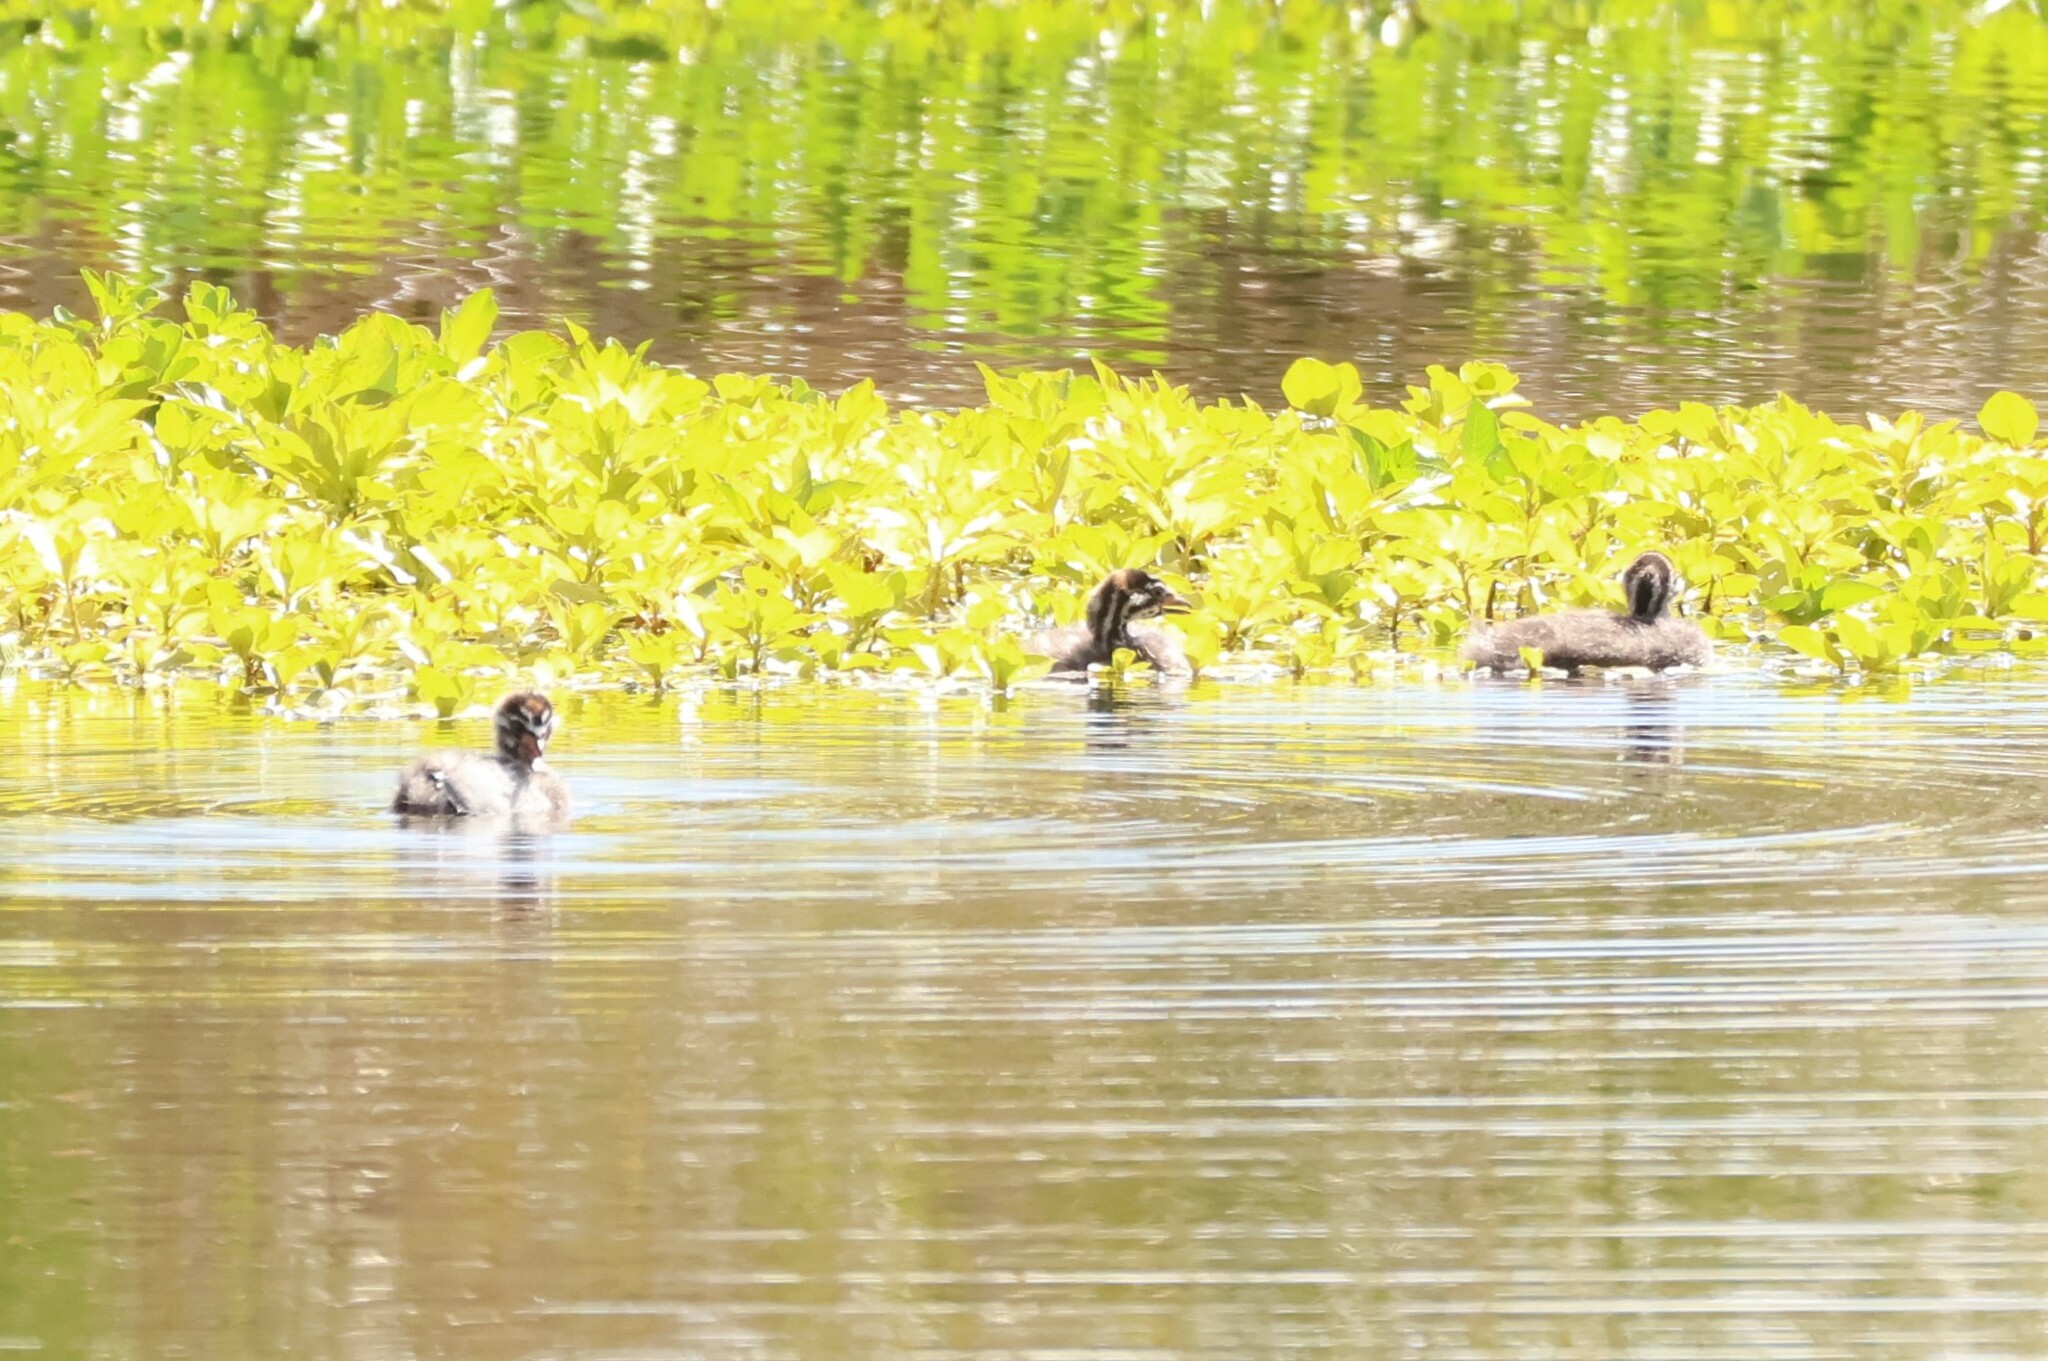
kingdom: Animalia
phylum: Chordata
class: Aves
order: Podicipediformes
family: Podicipedidae
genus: Podilymbus
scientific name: Podilymbus podiceps
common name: Pied-billed grebe
